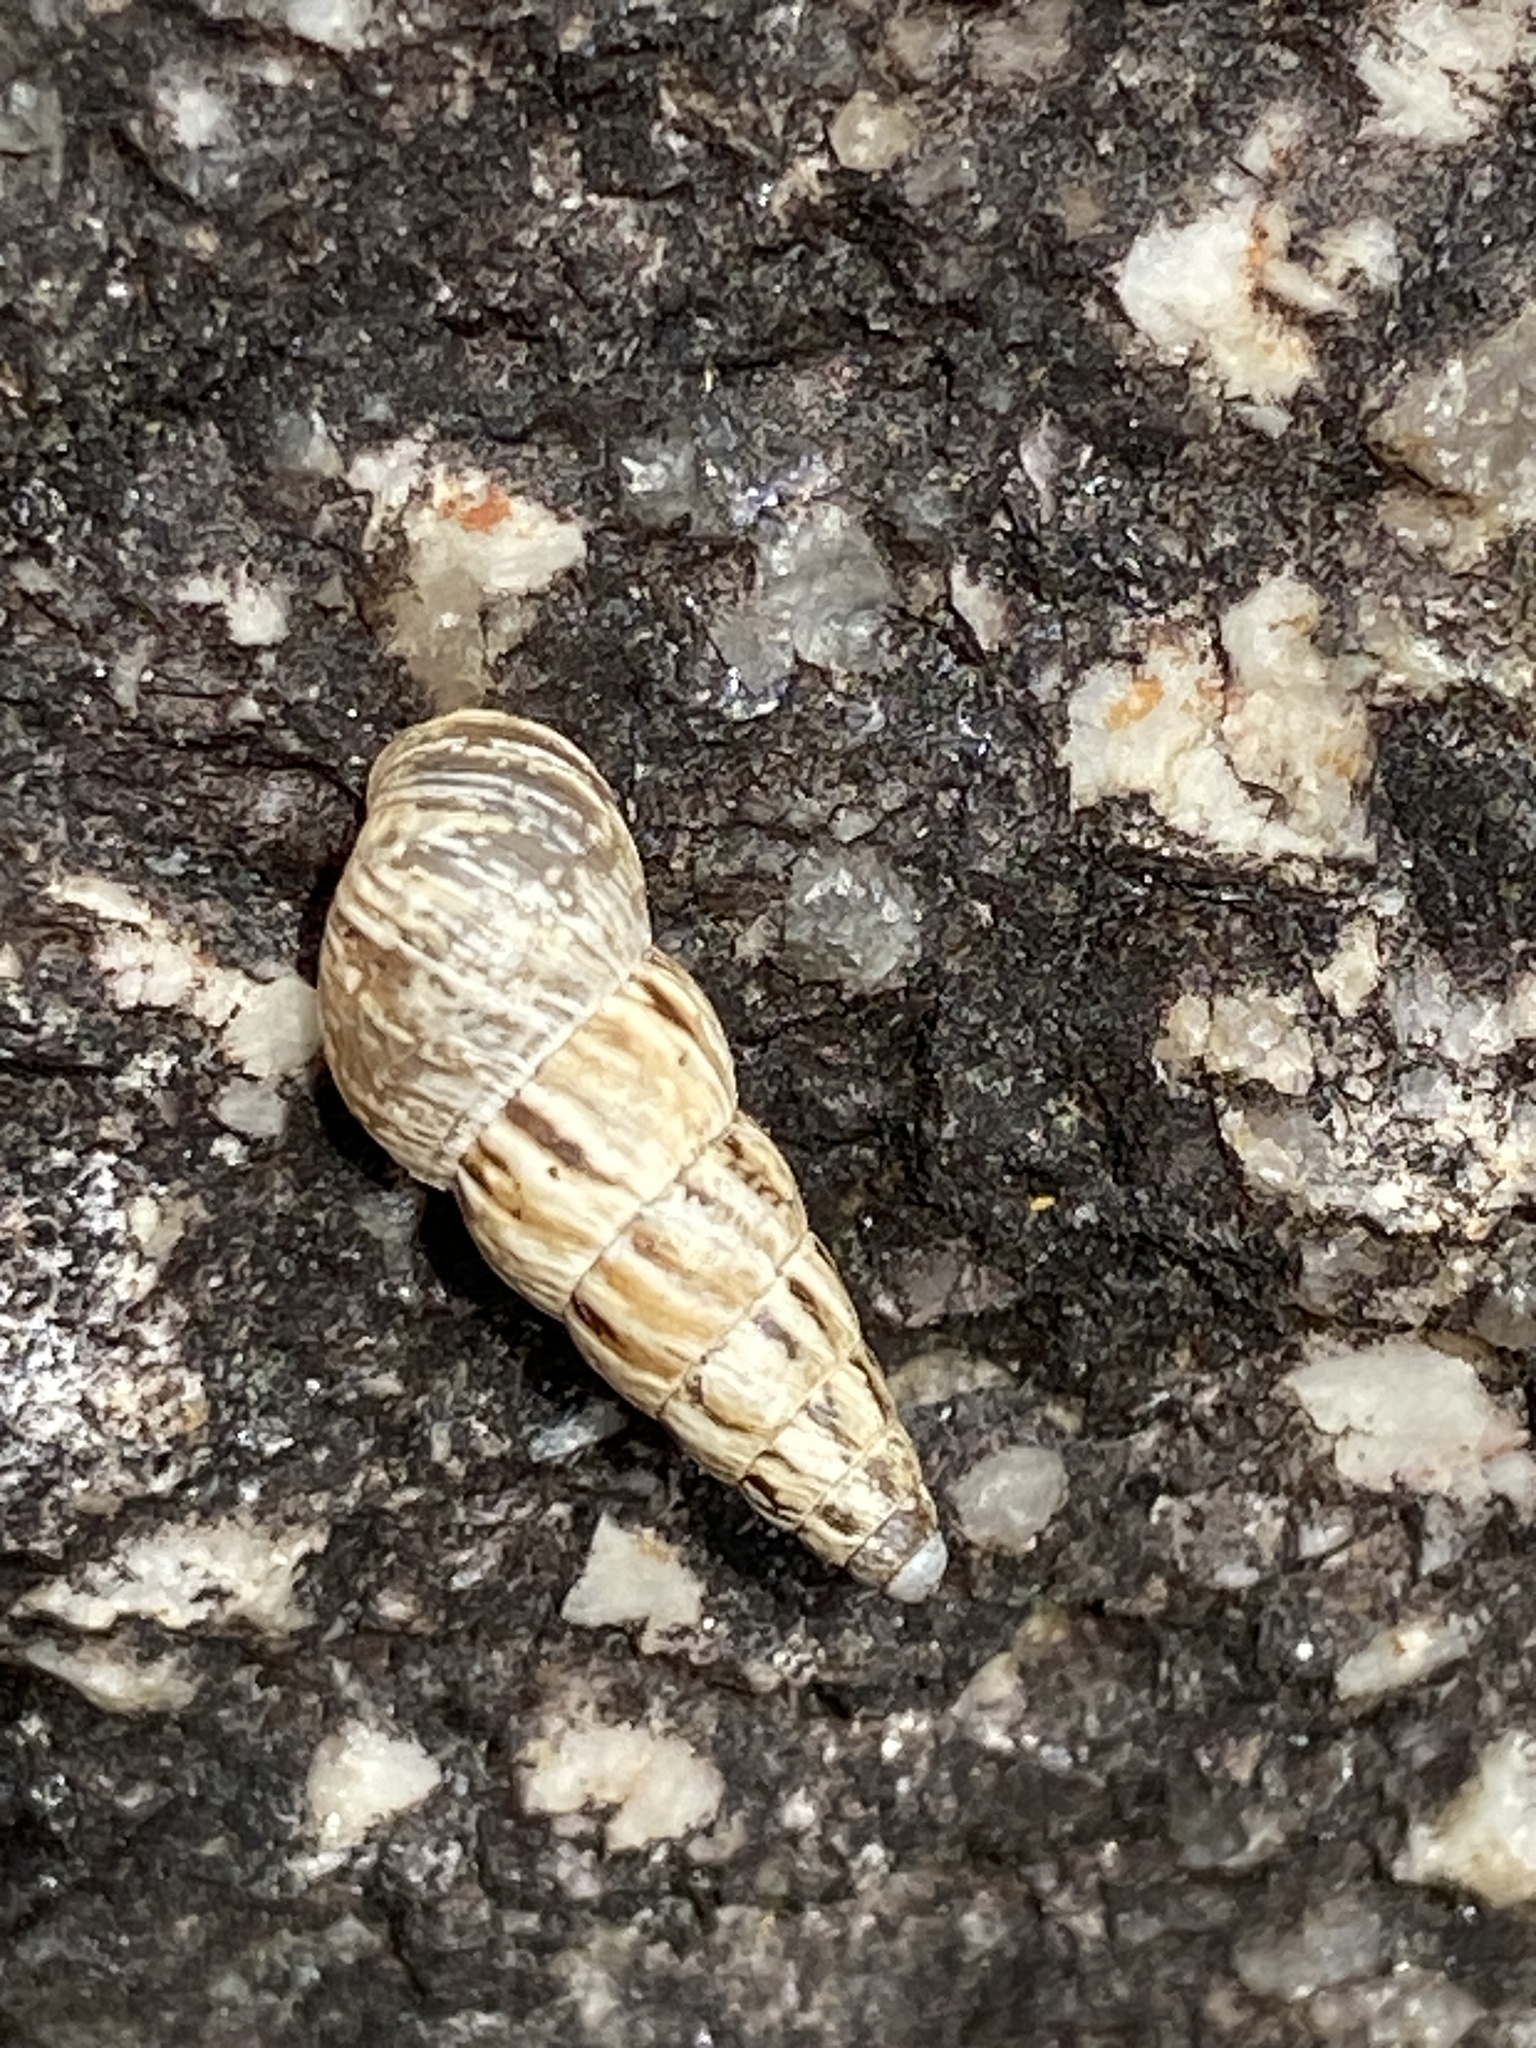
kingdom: Animalia
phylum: Mollusca
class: Gastropoda
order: Stylommatophora
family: Geomitridae
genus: Cochlicella
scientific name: Cochlicella acuta
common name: Pointed snail
